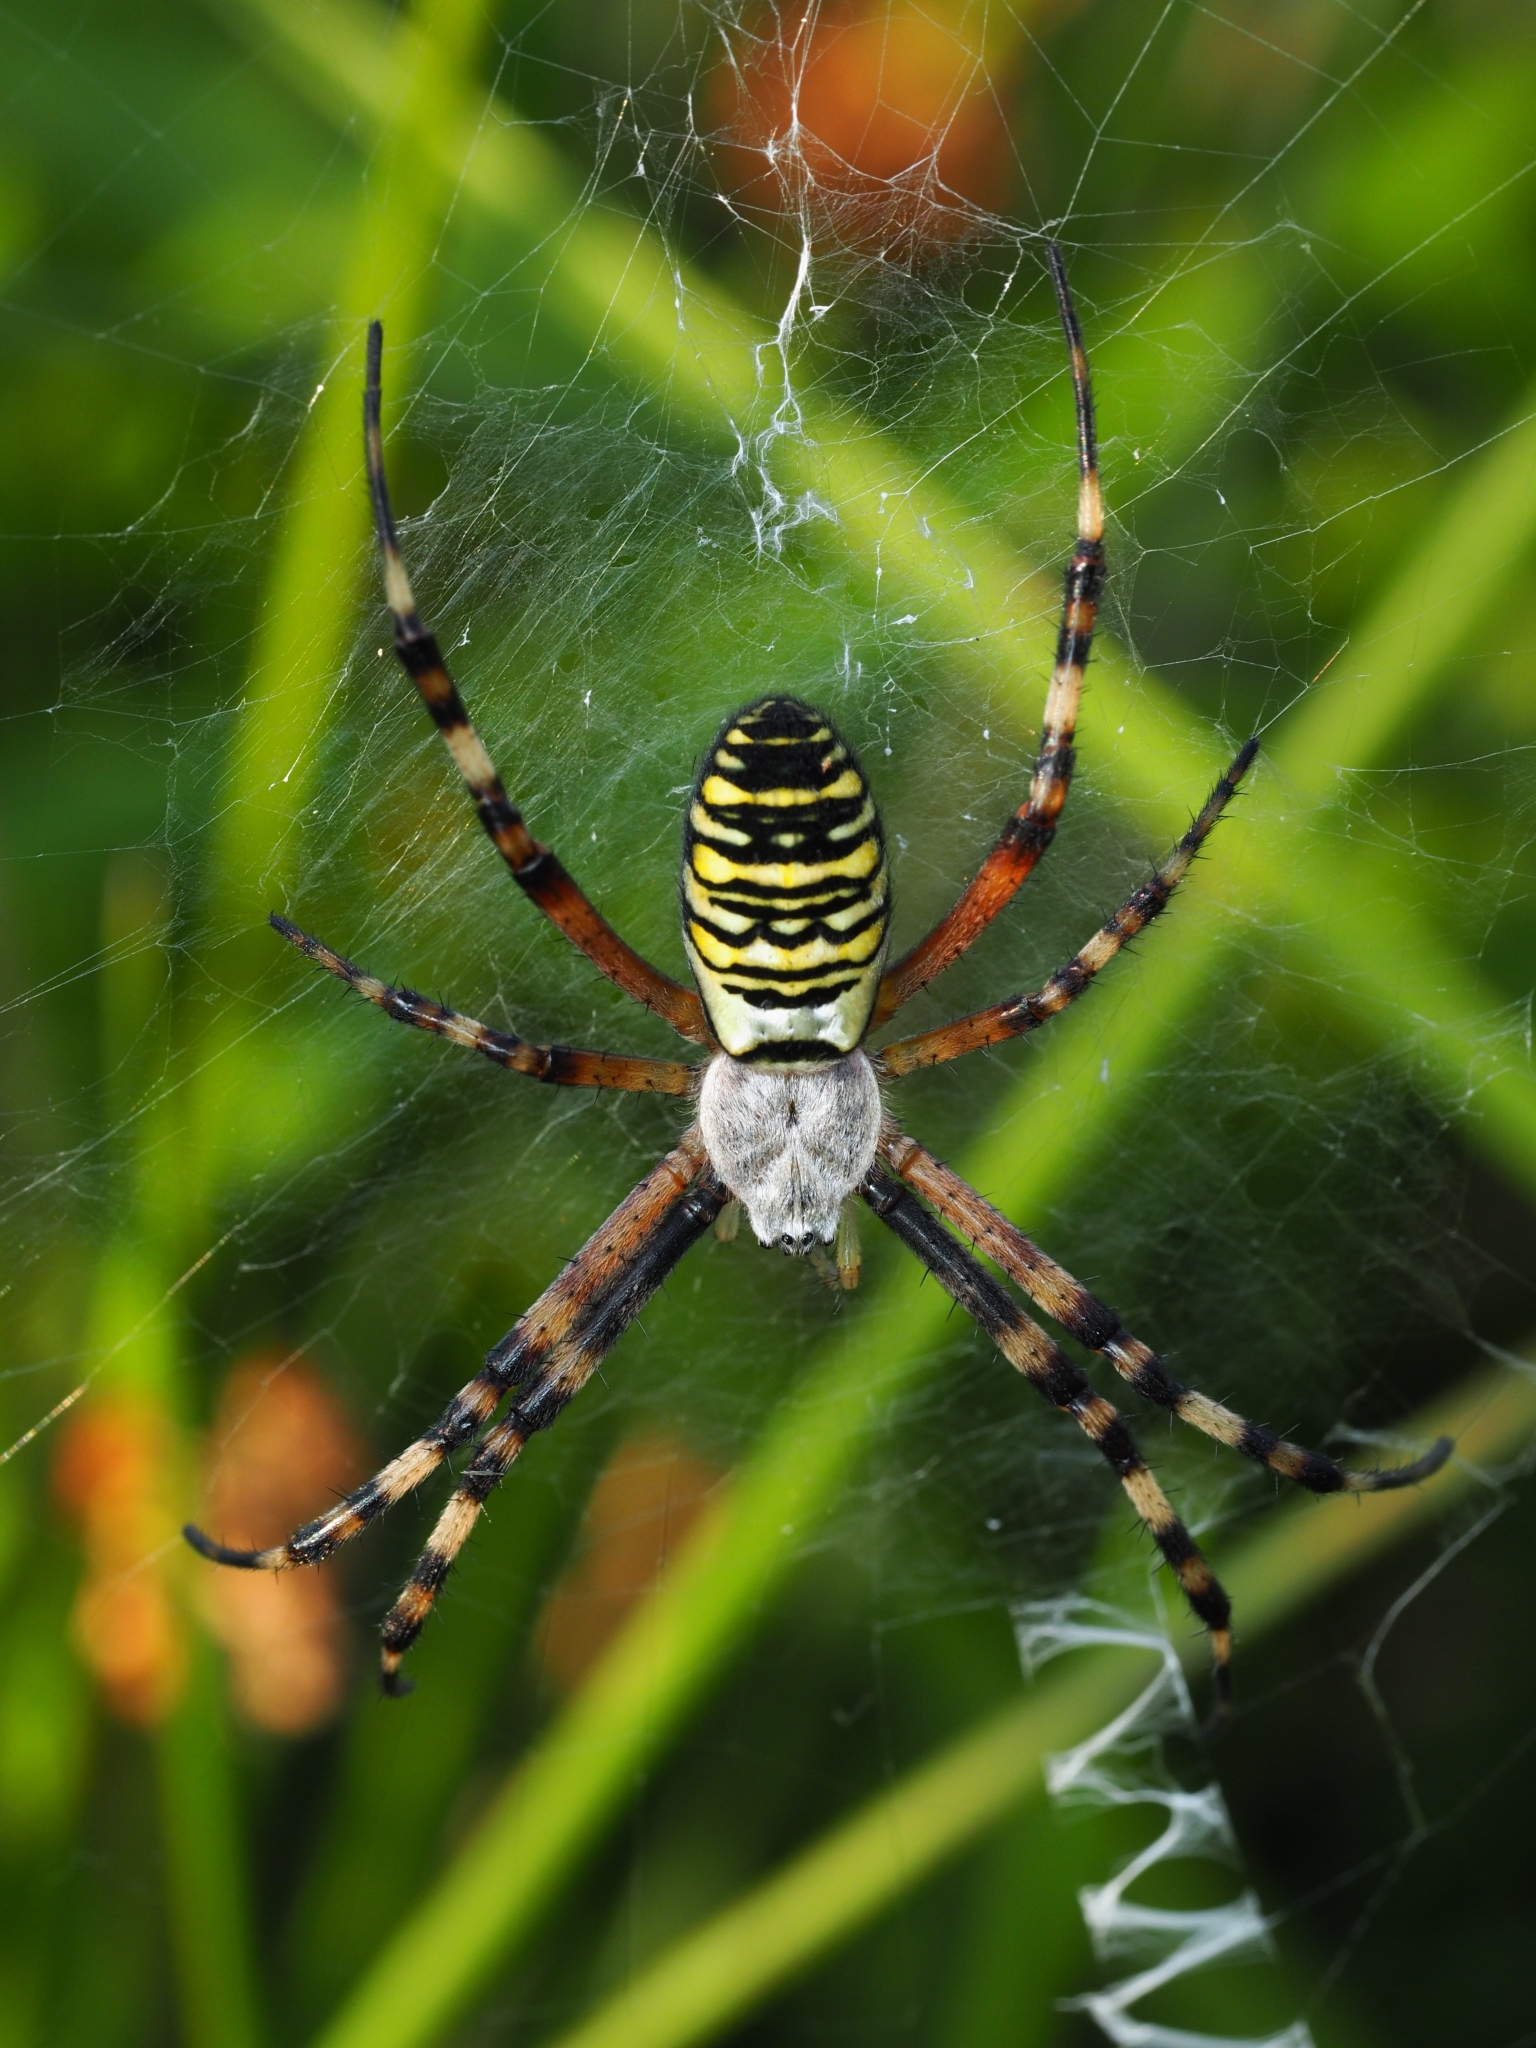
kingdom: Animalia
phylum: Arthropoda
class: Arachnida
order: Araneae
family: Araneidae
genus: Argiope
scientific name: Argiope bruennichi
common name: Wasp spider
